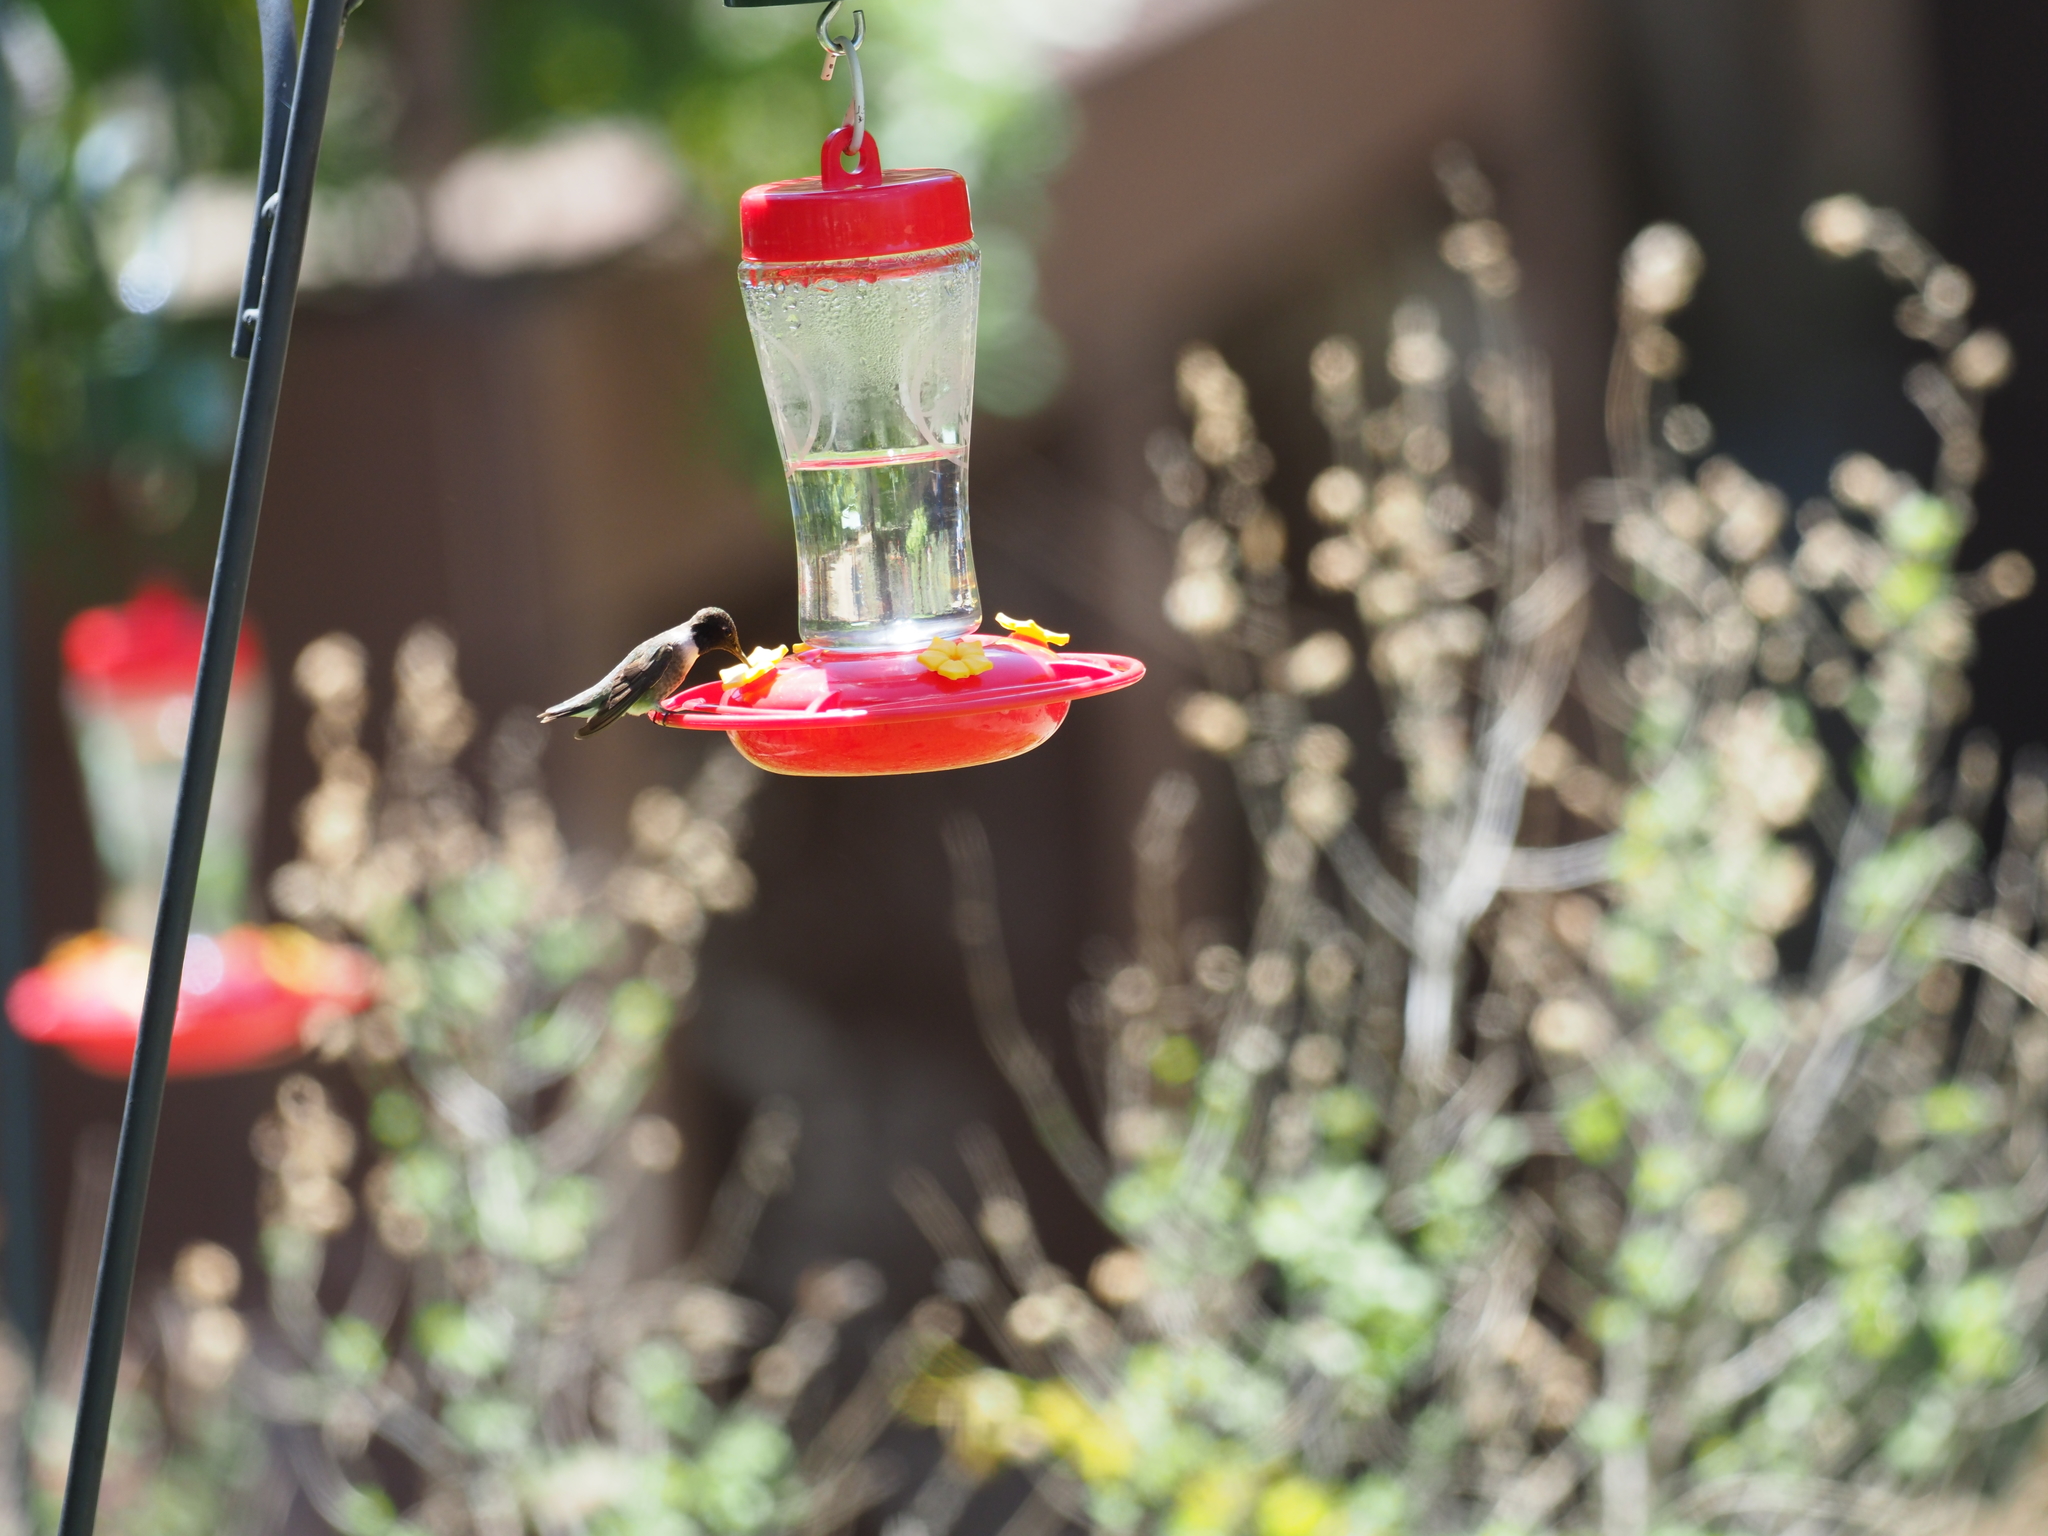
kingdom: Animalia
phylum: Chordata
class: Aves
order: Apodiformes
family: Trochilidae
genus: Archilochus
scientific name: Archilochus alexandri
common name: Black-chinned hummingbird
